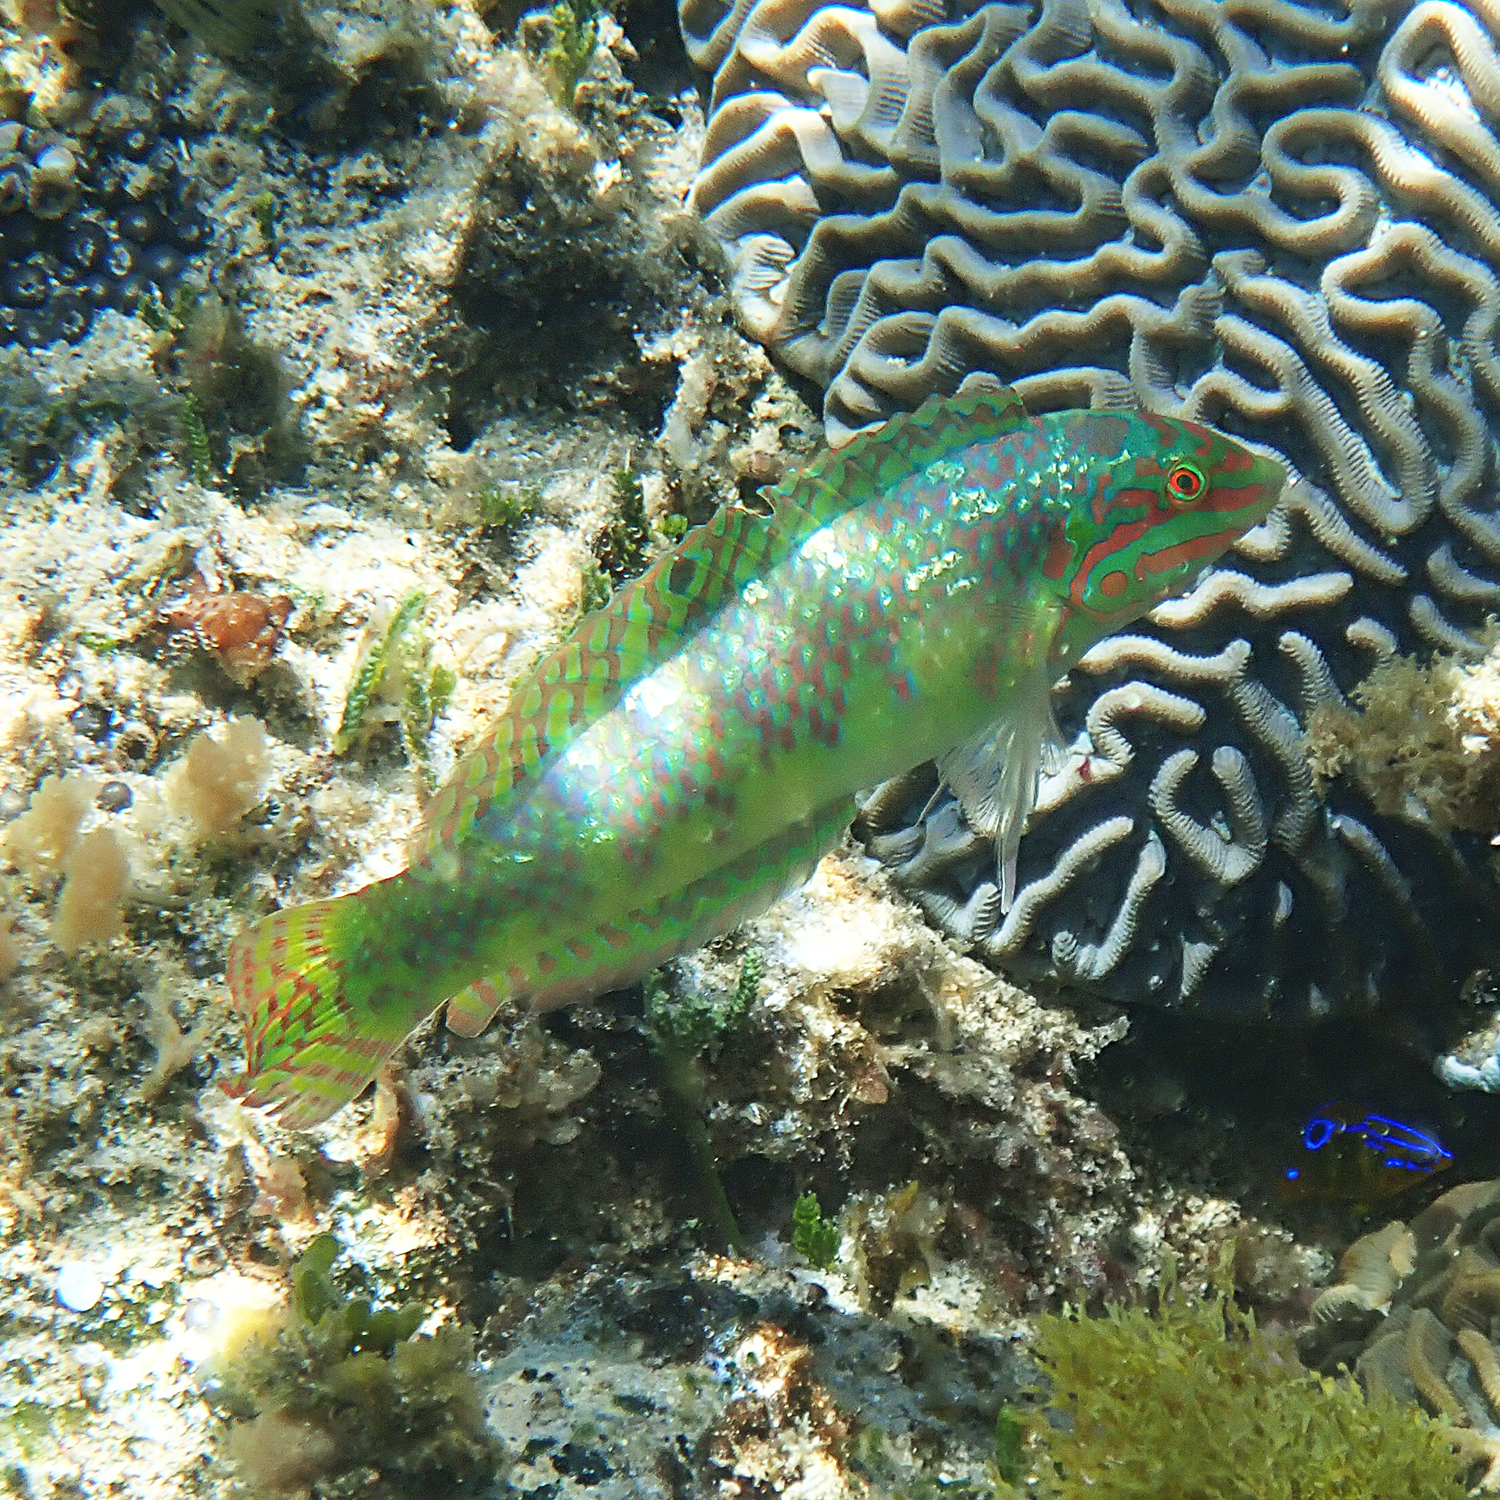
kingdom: Animalia
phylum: Chordata
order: Perciformes
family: Labridae
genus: Halichoeres
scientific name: Halichoeres margaritaceus
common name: Pink-belly wrasse
